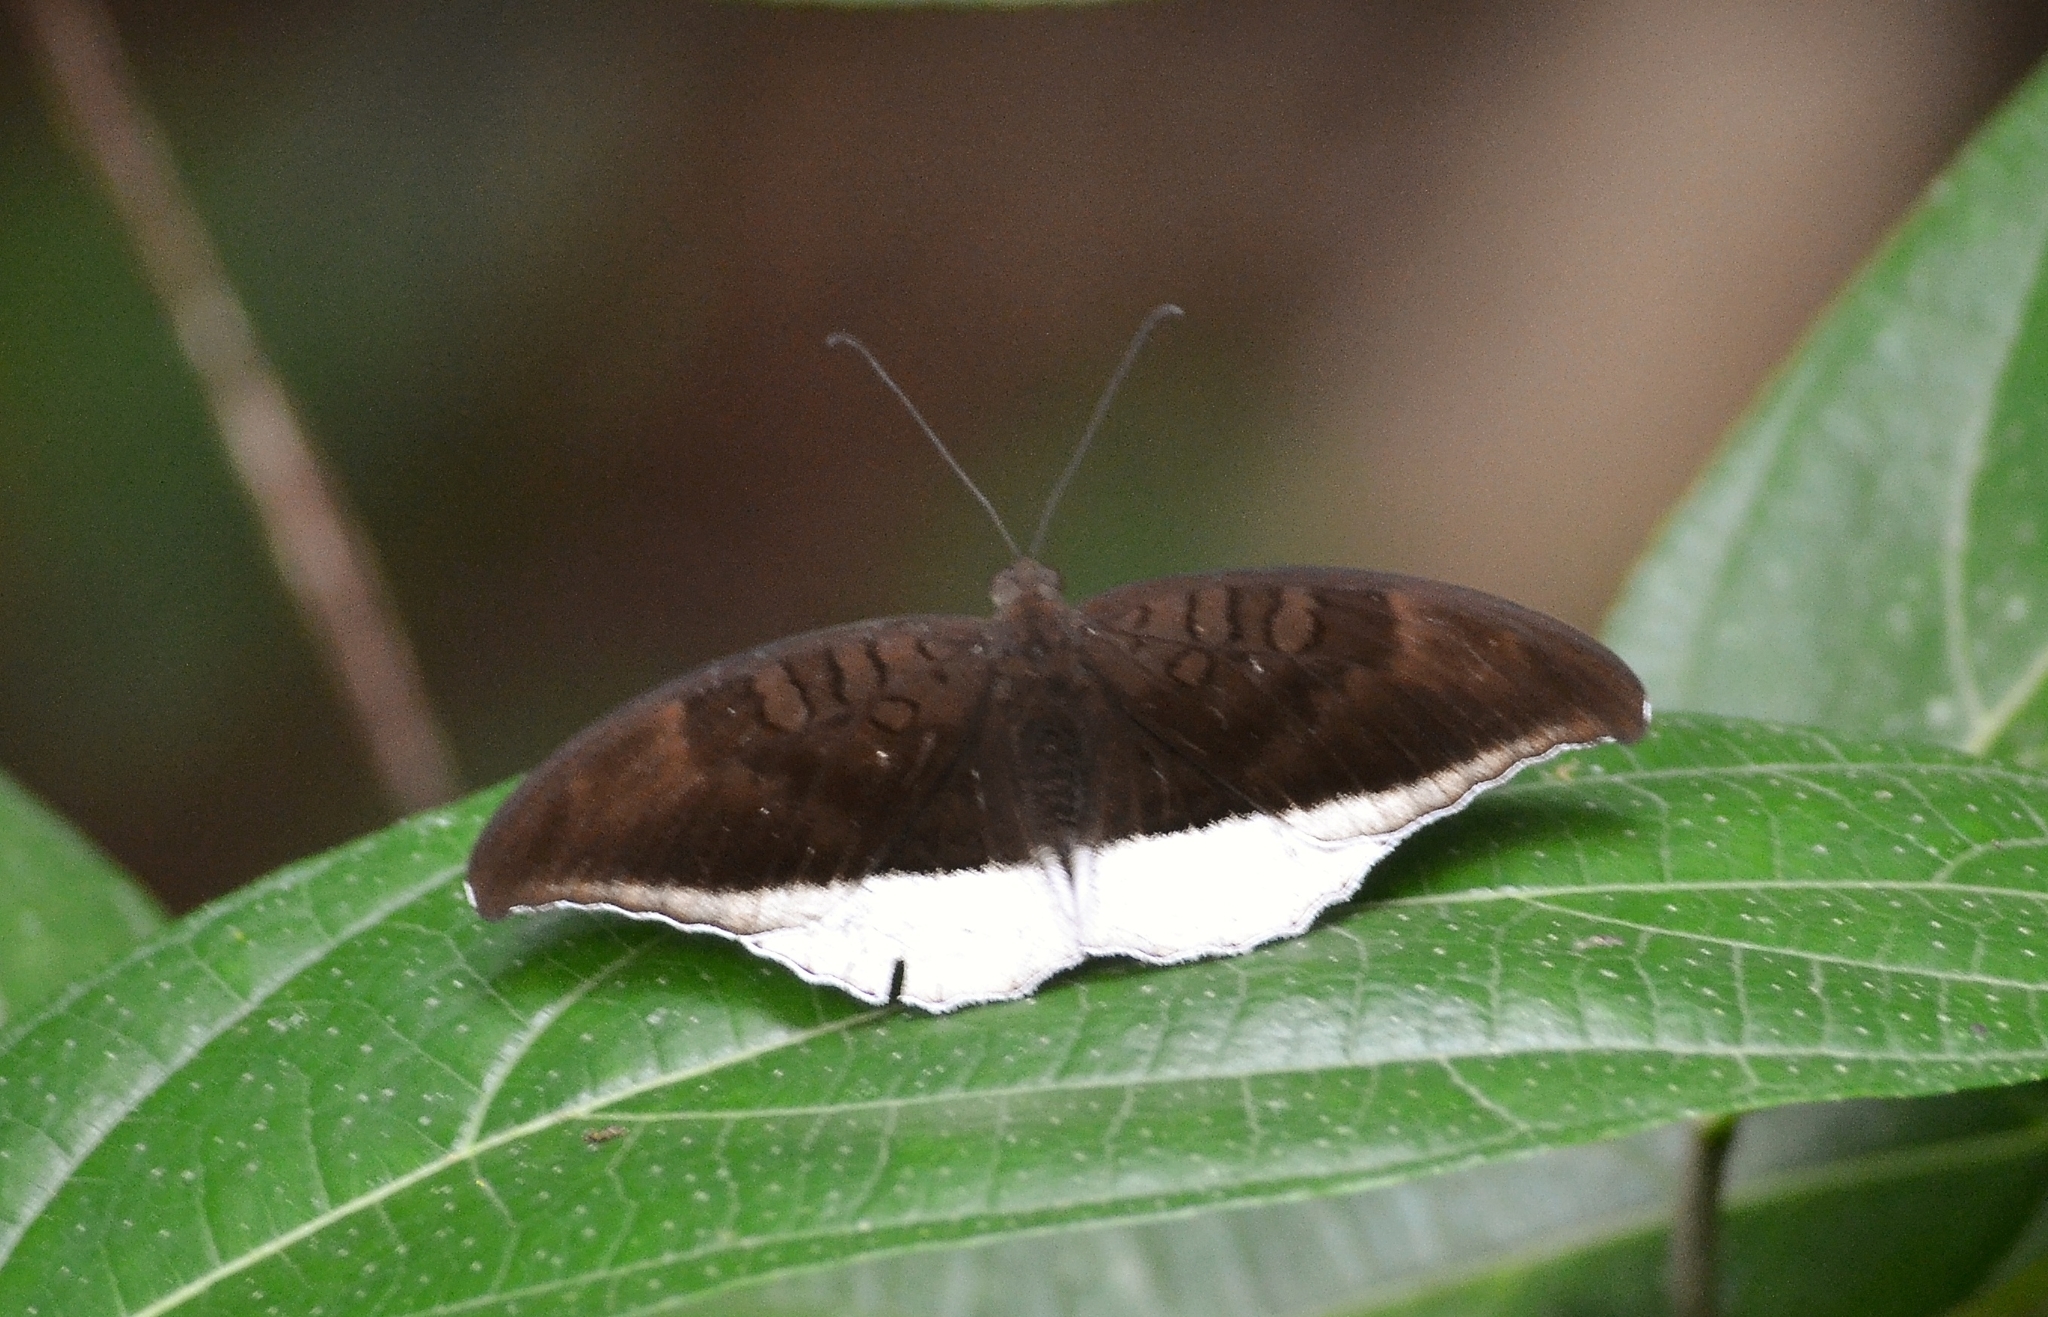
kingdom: Animalia
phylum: Arthropoda
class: Insecta
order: Lepidoptera
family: Nymphalidae
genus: Tanaecia
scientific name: Tanaecia lepidea
